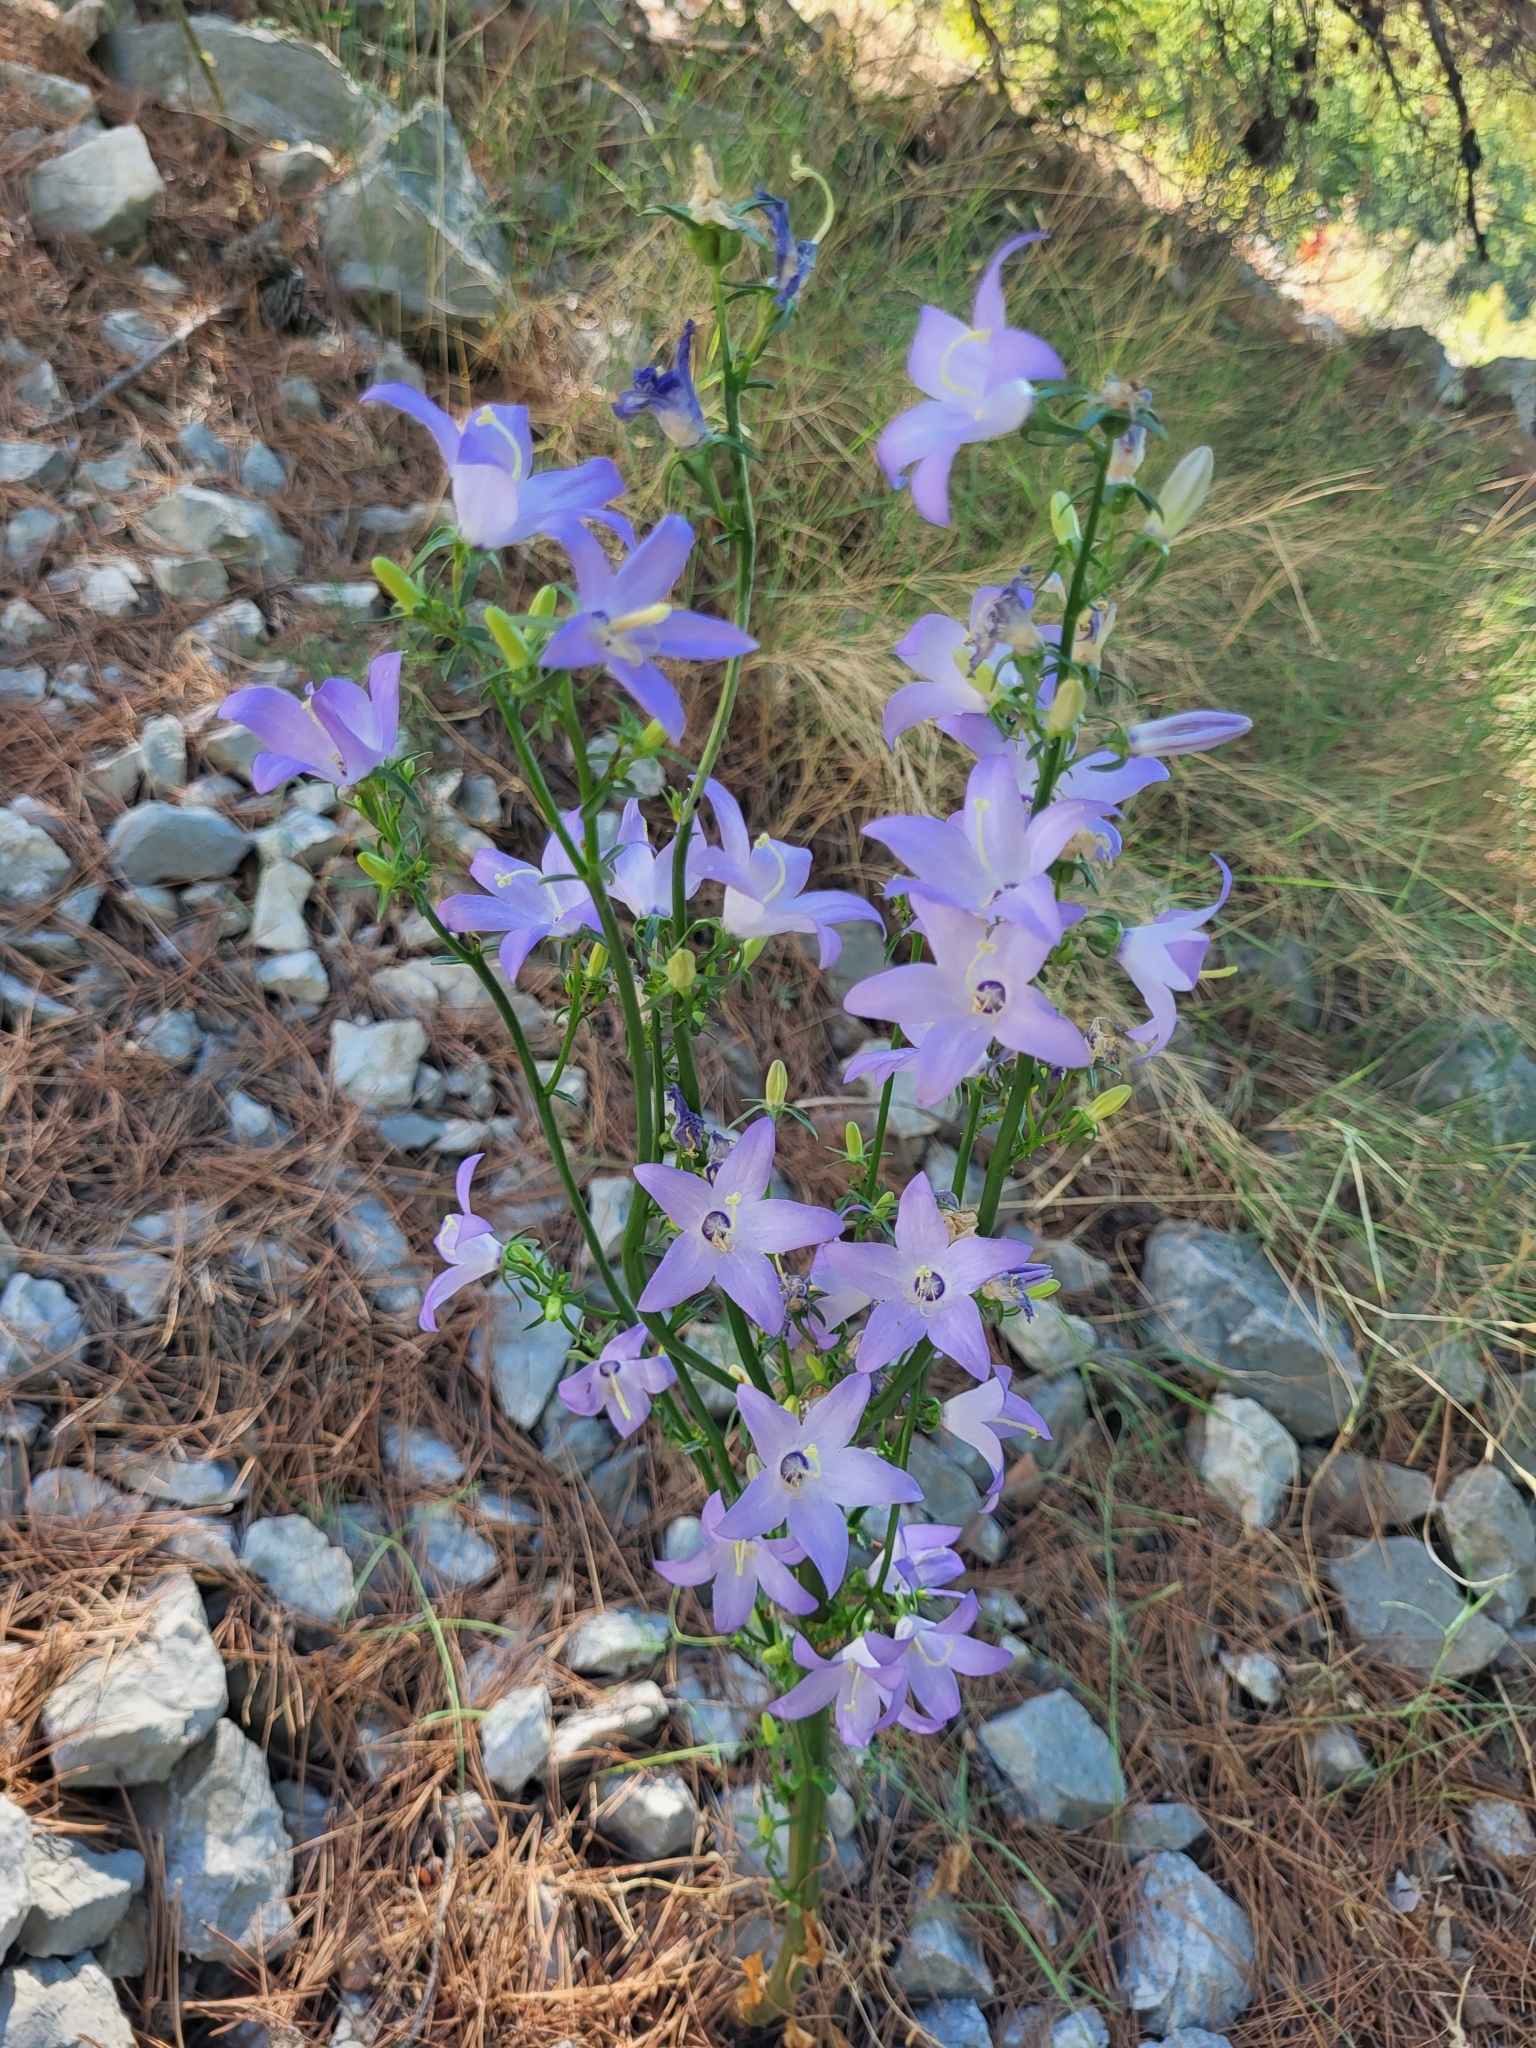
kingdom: Plantae
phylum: Tracheophyta
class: Magnoliopsida
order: Asterales
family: Campanulaceae
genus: Campanula
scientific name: Campanula pyramidalis
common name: Chimney bellflower
